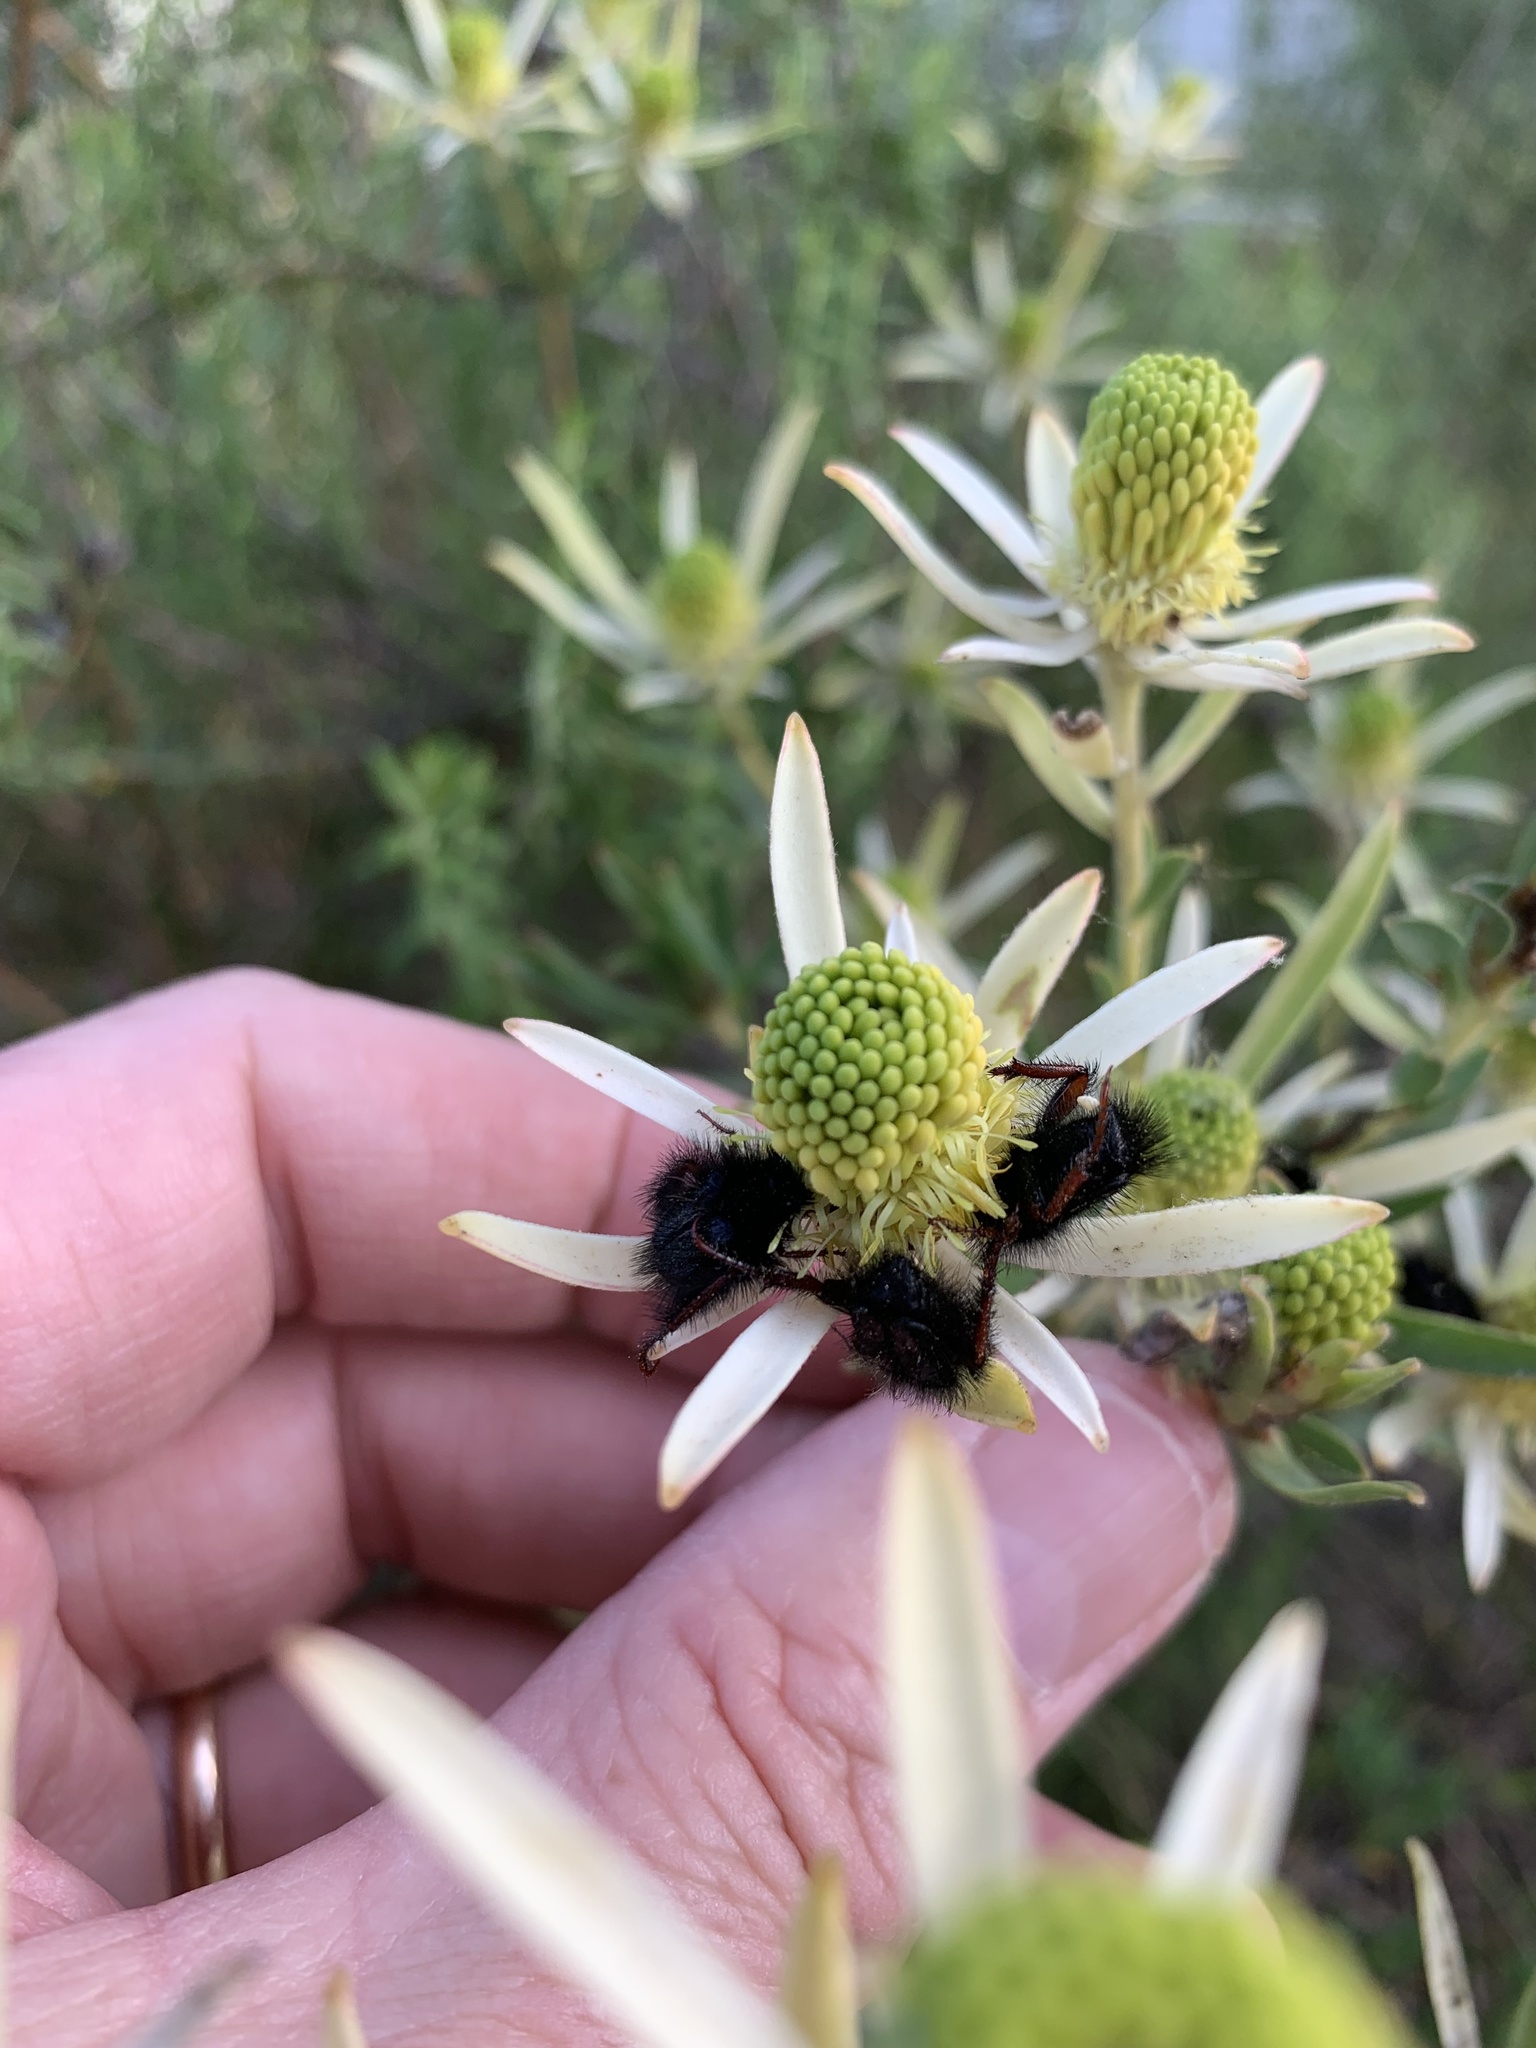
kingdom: Plantae
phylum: Tracheophyta
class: Magnoliopsida
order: Proteales
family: Proteaceae
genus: Leucadendron
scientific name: Leucadendron lanigerum
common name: Shale conebush
